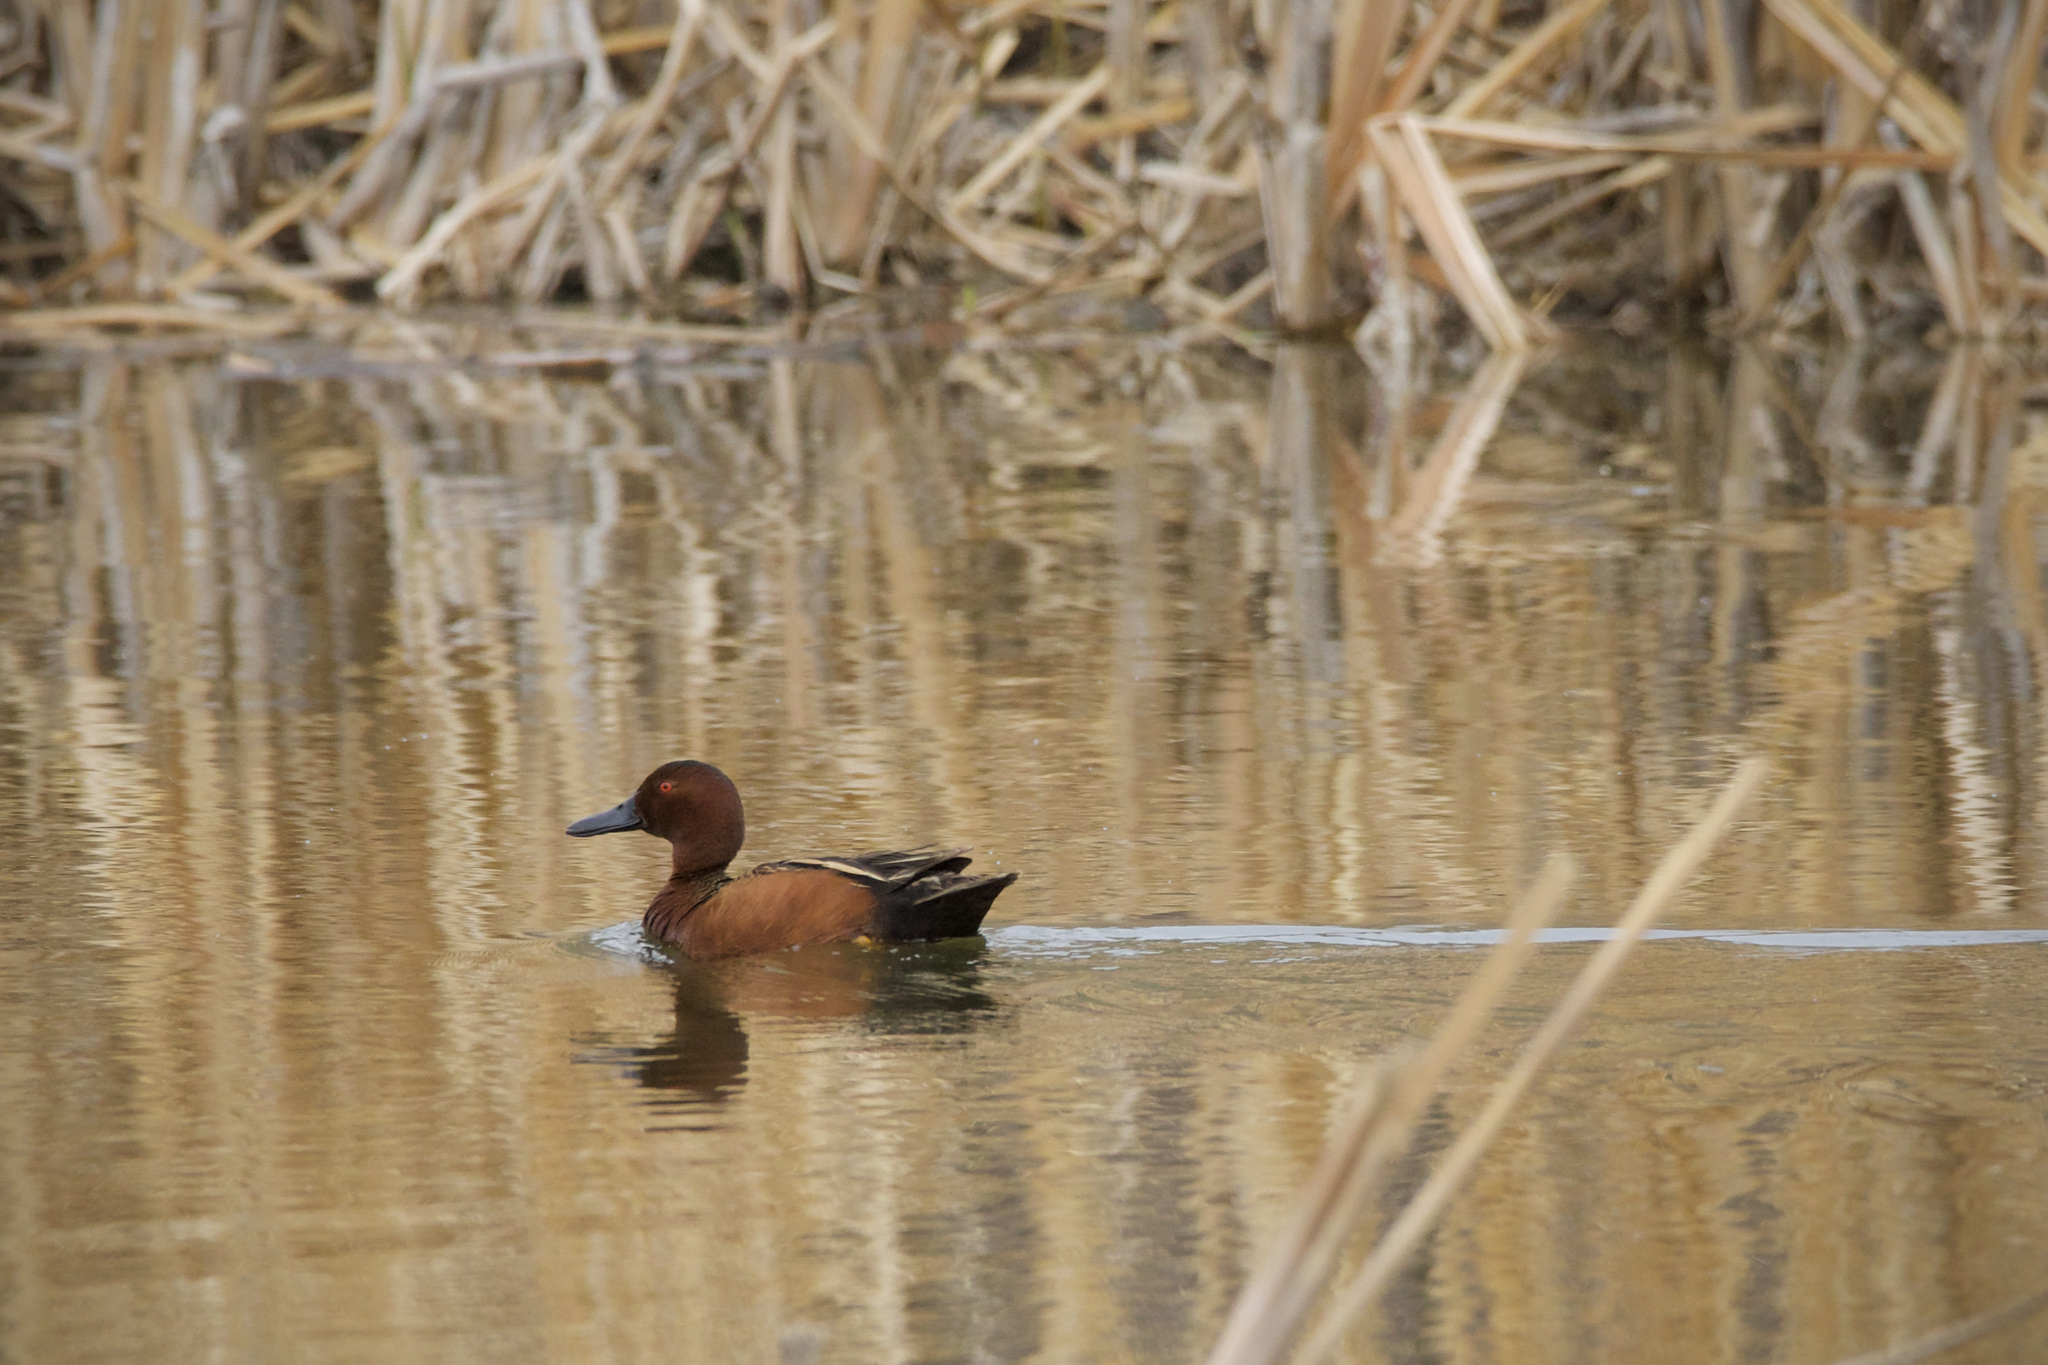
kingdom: Animalia
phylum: Chordata
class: Aves
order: Anseriformes
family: Anatidae
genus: Spatula
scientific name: Spatula cyanoptera
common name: Cinnamon teal
